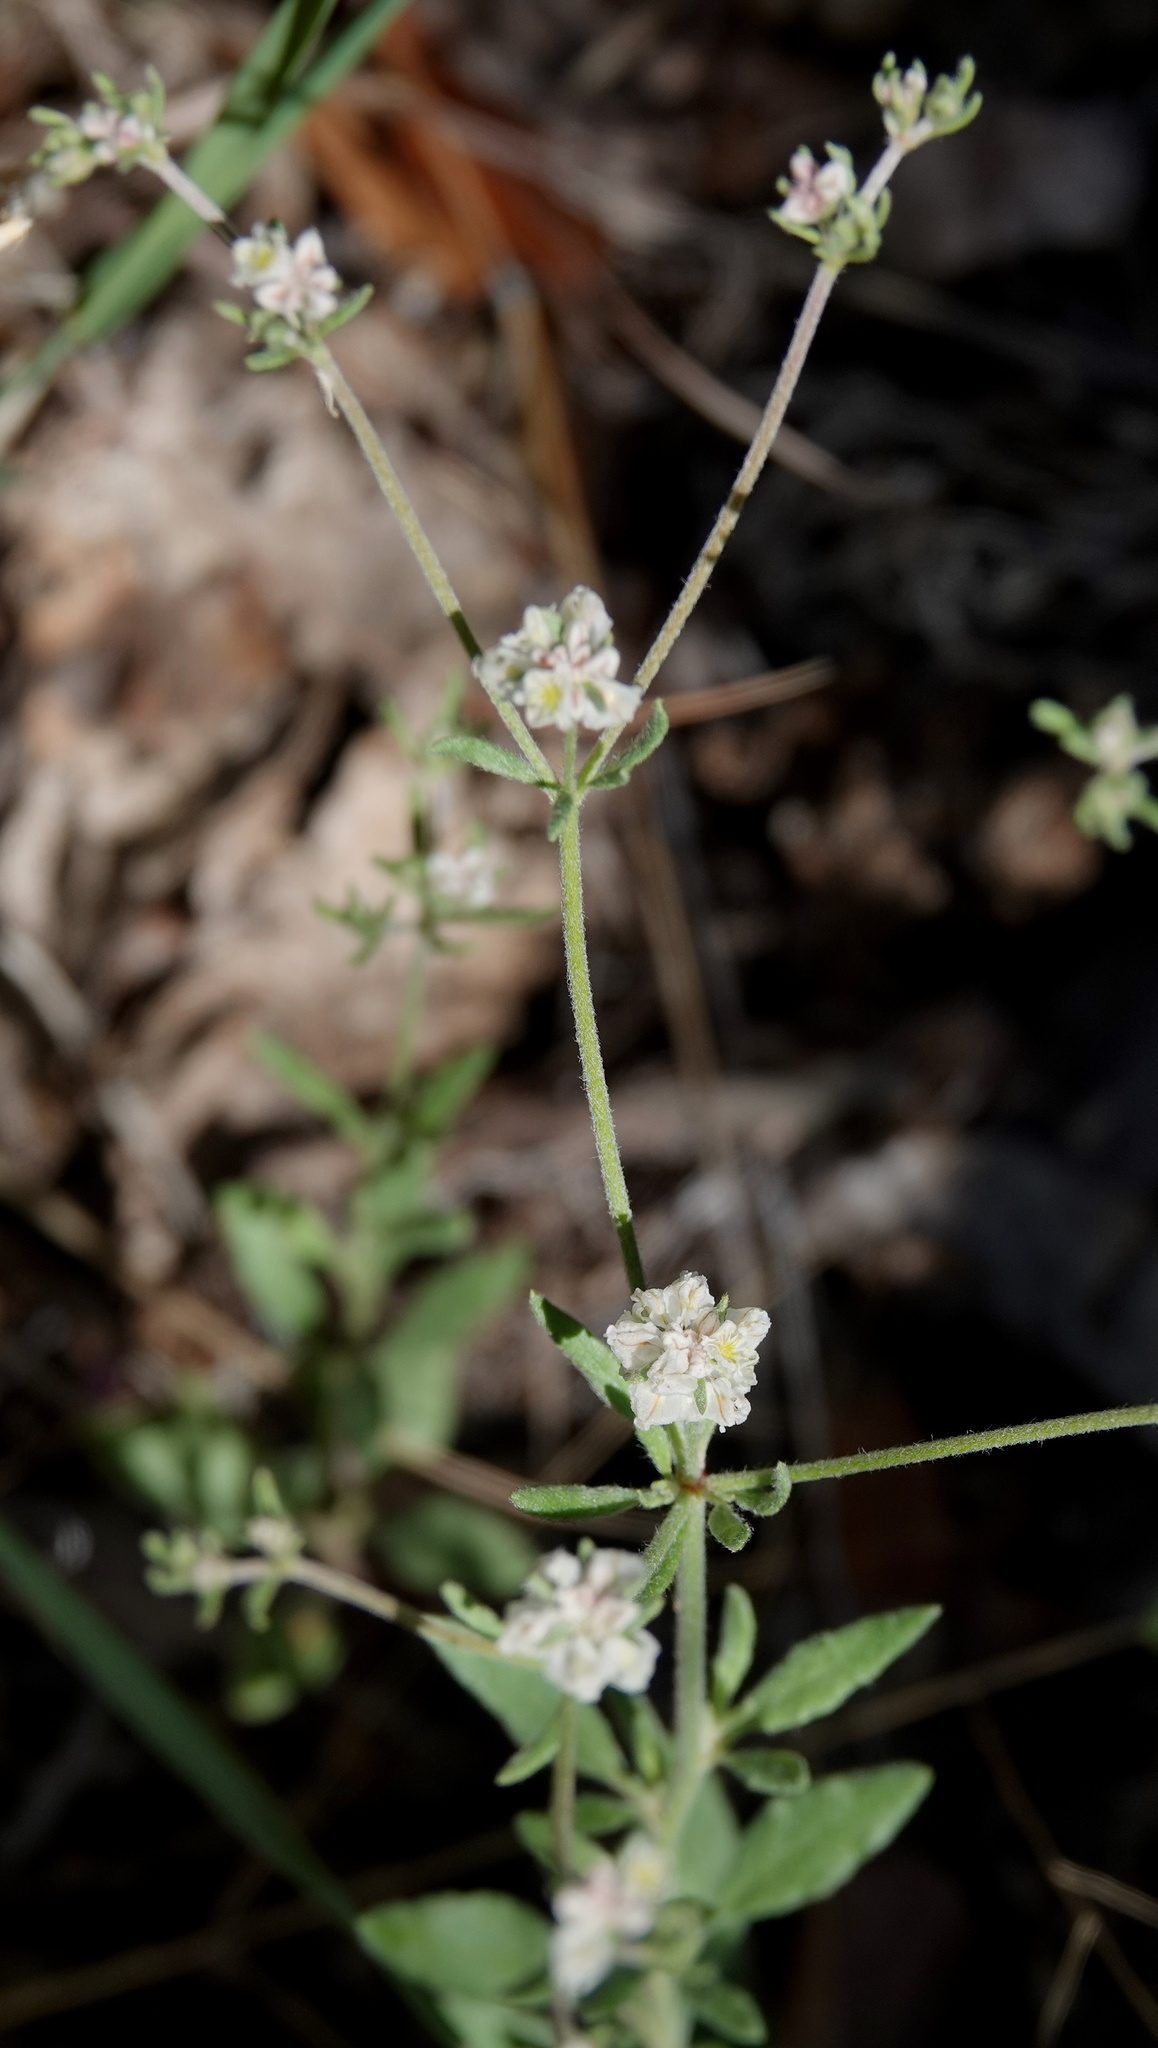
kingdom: Plantae
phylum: Tracheophyta
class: Magnoliopsida
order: Caryophyllales
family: Polygonaceae
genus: Eriogonum
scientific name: Eriogonum abertianum
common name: Abert's wild buckwheat
